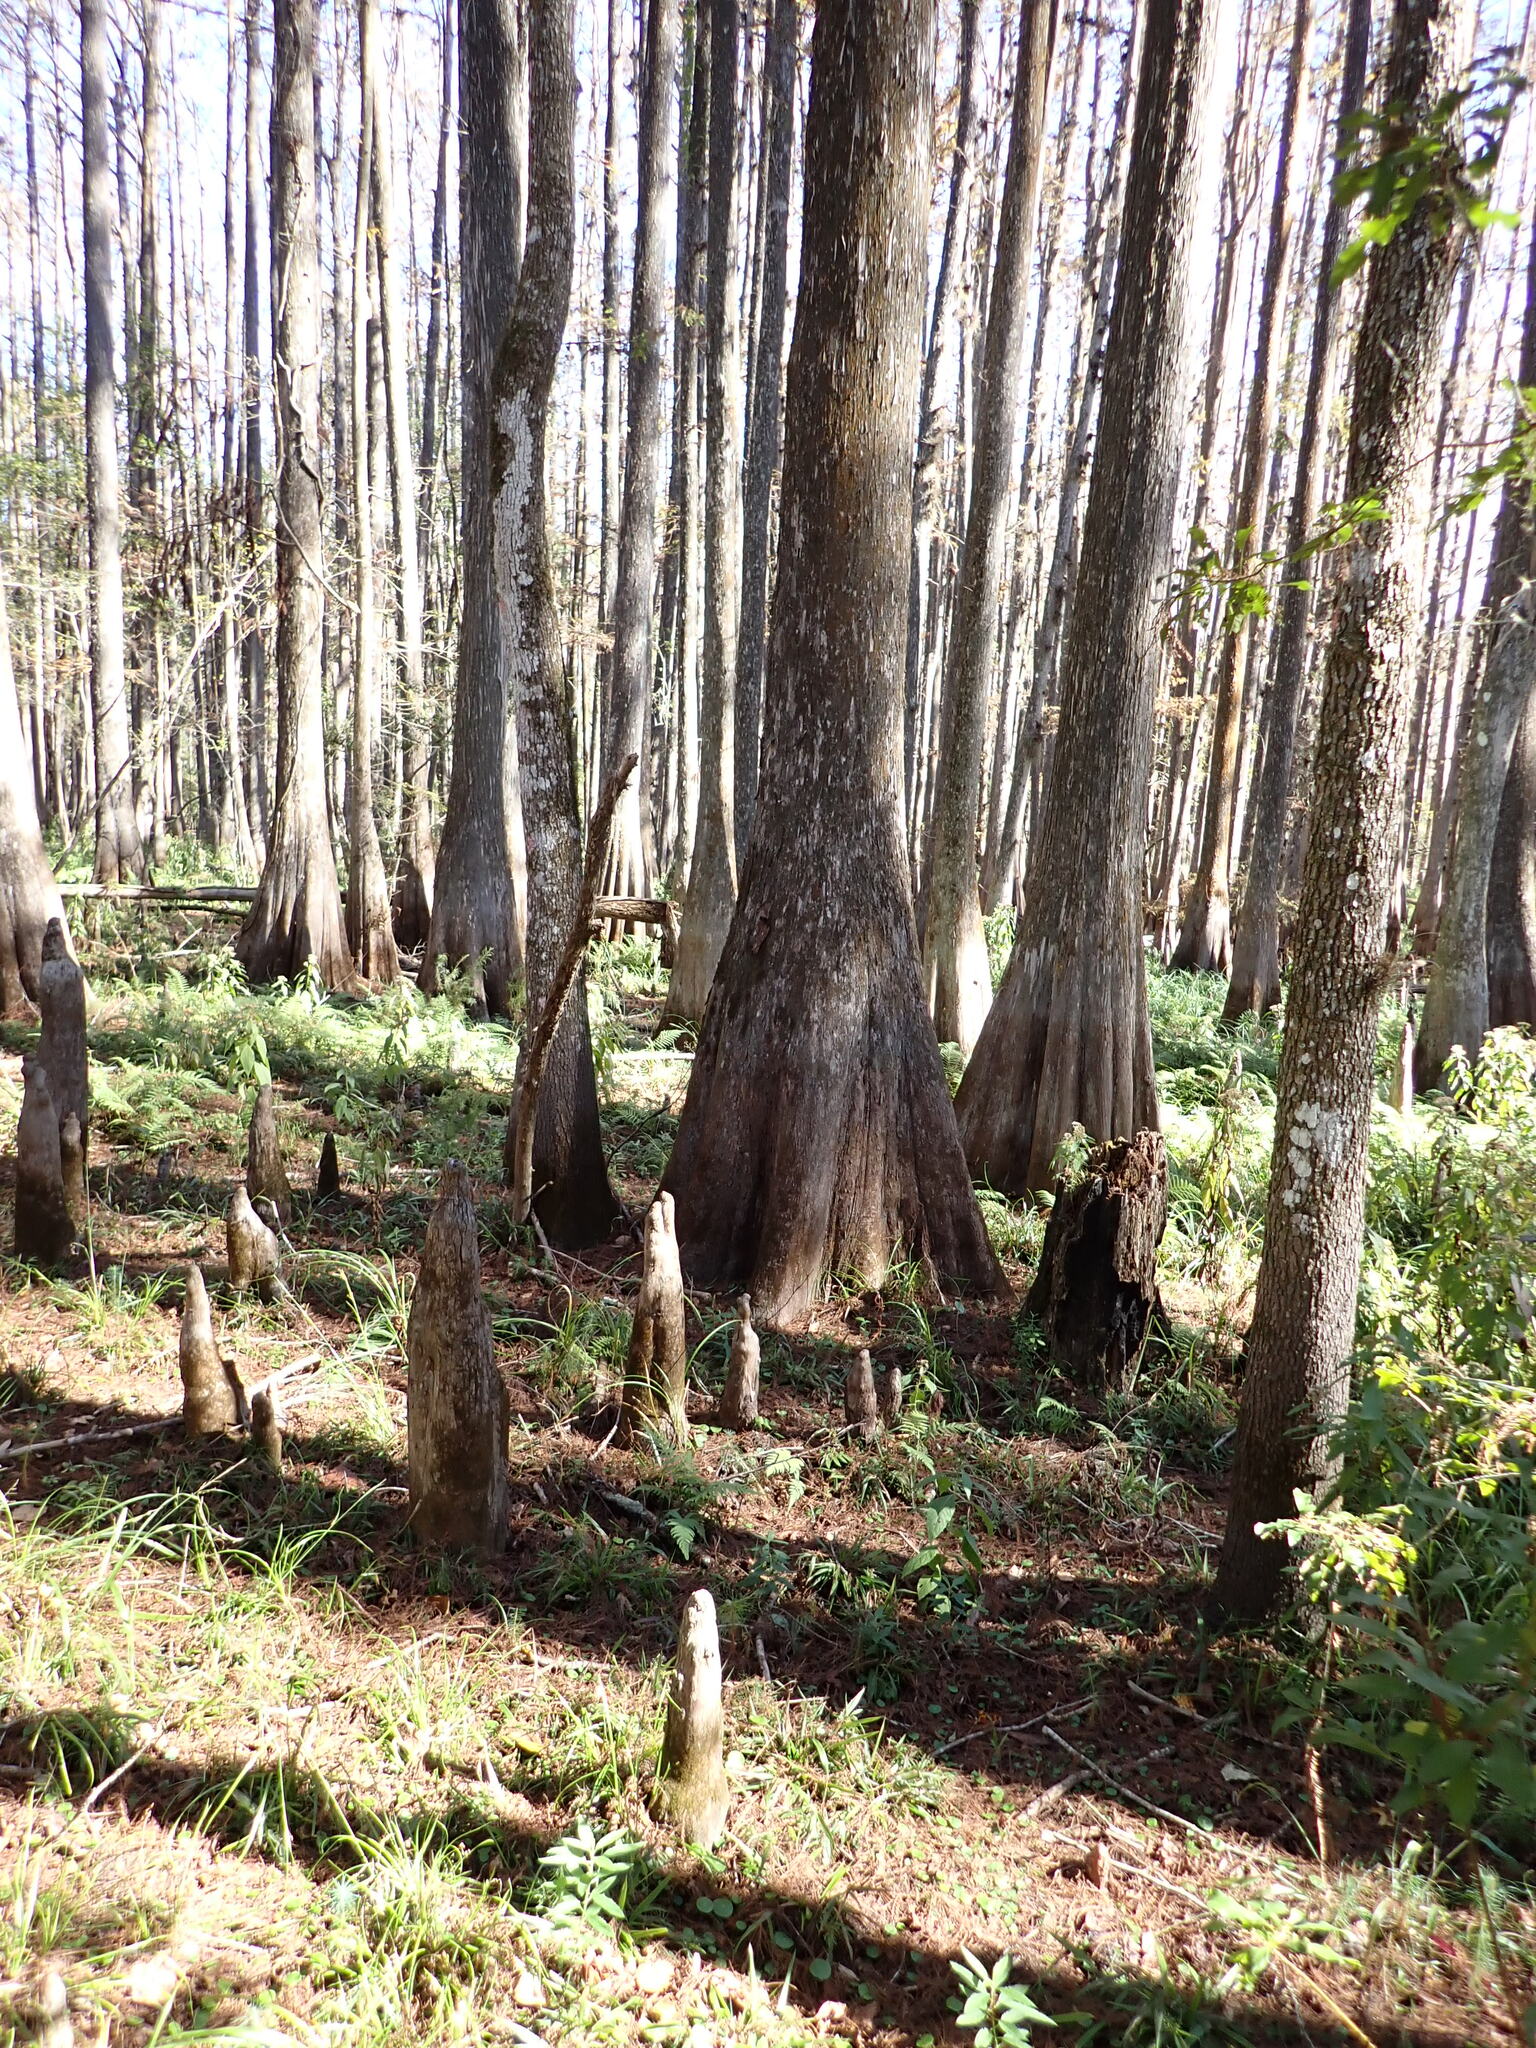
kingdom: Plantae
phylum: Tracheophyta
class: Pinopsida
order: Pinales
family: Cupressaceae
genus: Taxodium
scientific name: Taxodium distichum
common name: Bald cypress
